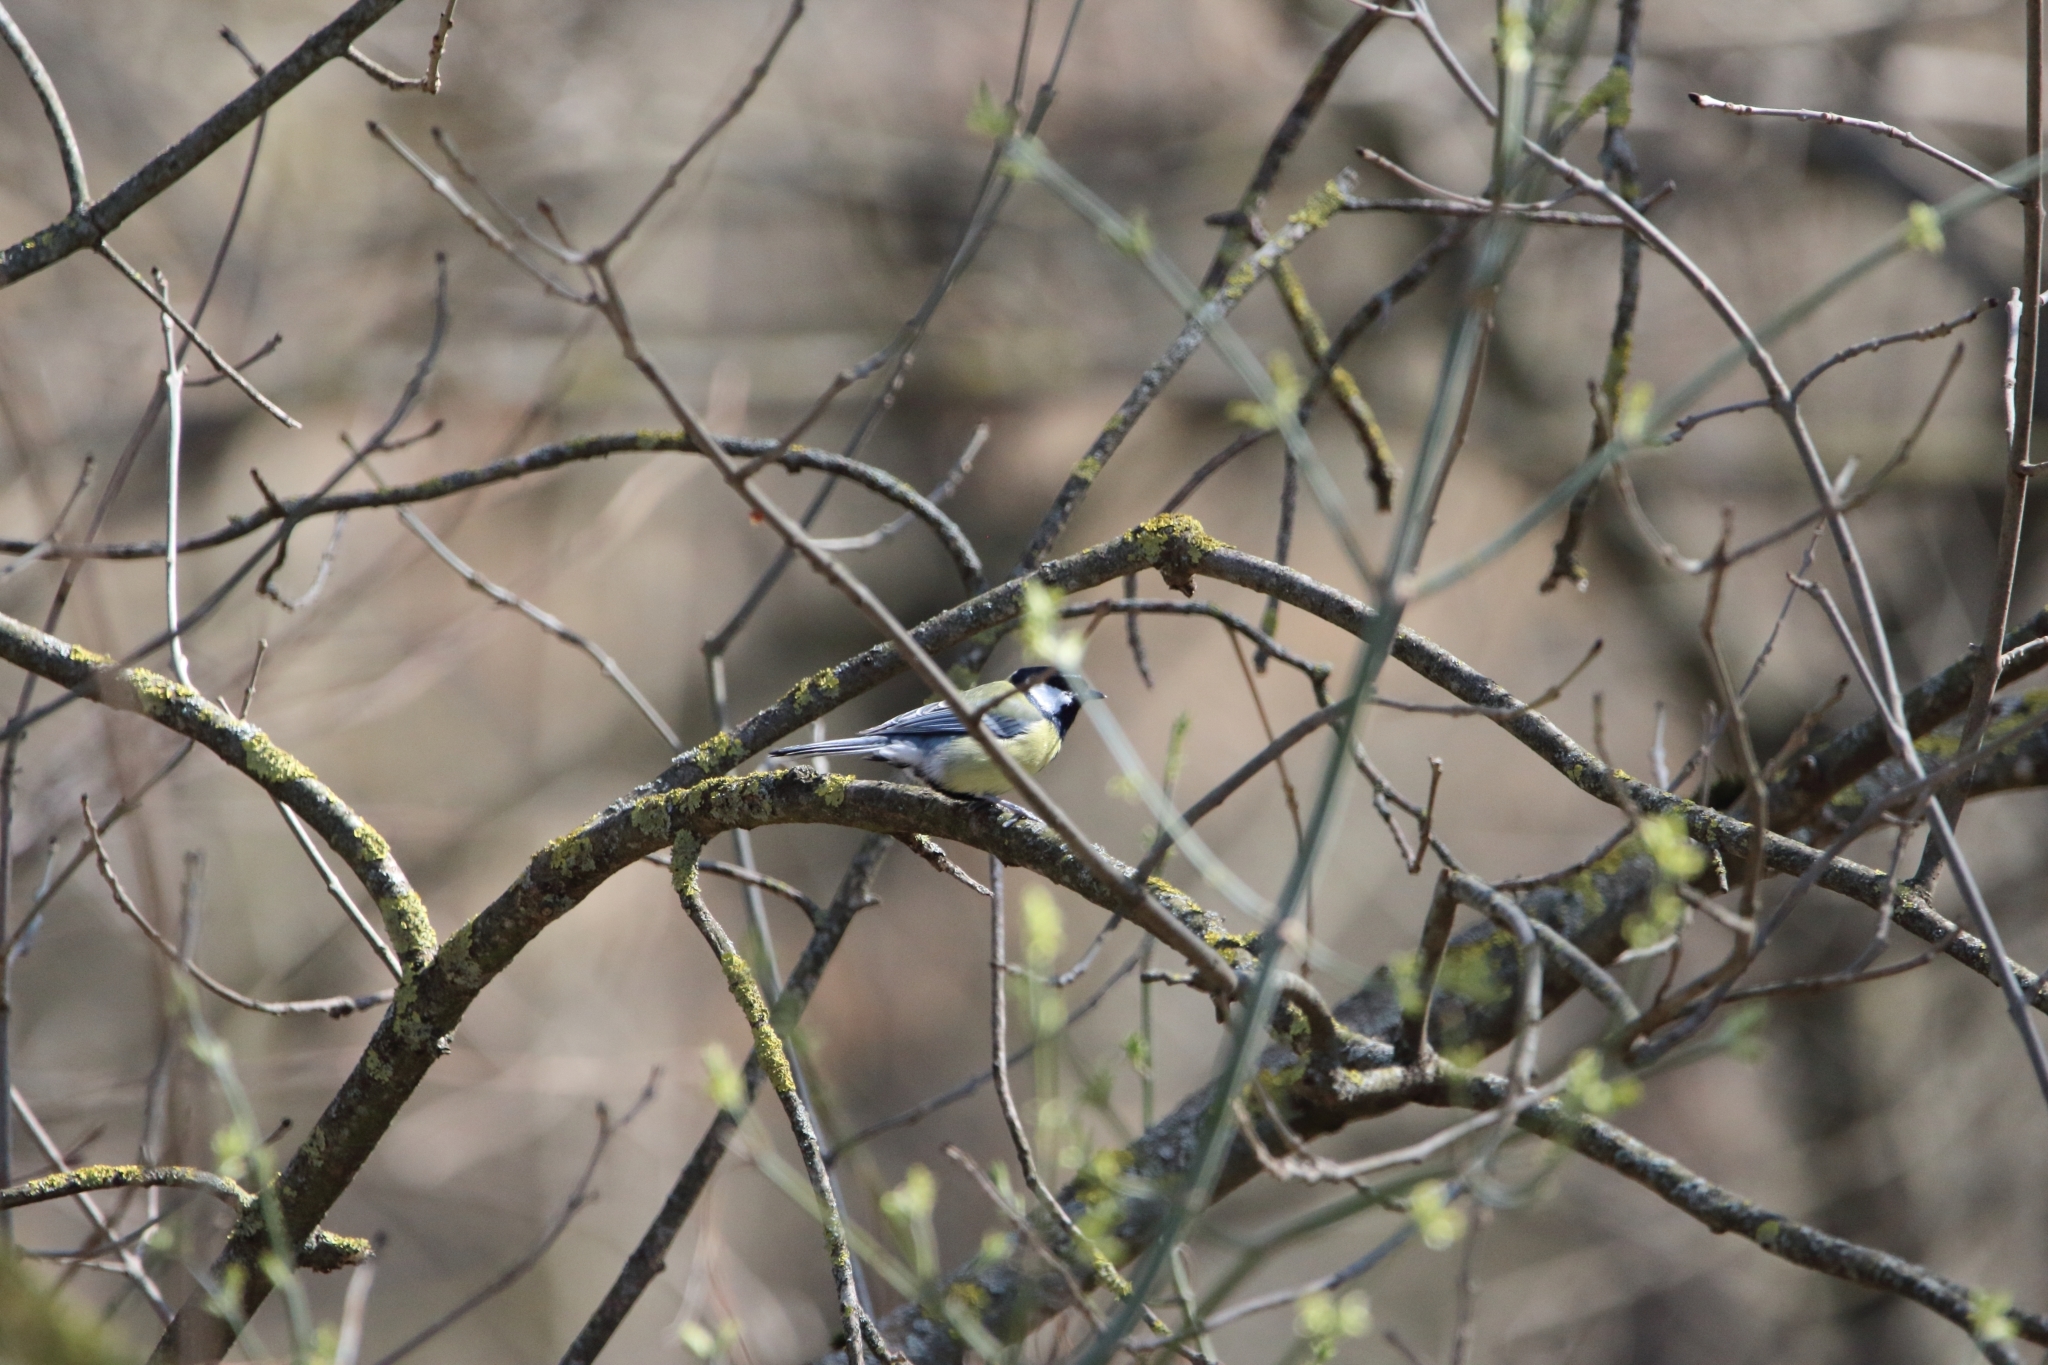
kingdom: Animalia
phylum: Chordata
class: Aves
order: Passeriformes
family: Paridae
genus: Parus
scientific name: Parus major
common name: Great tit
